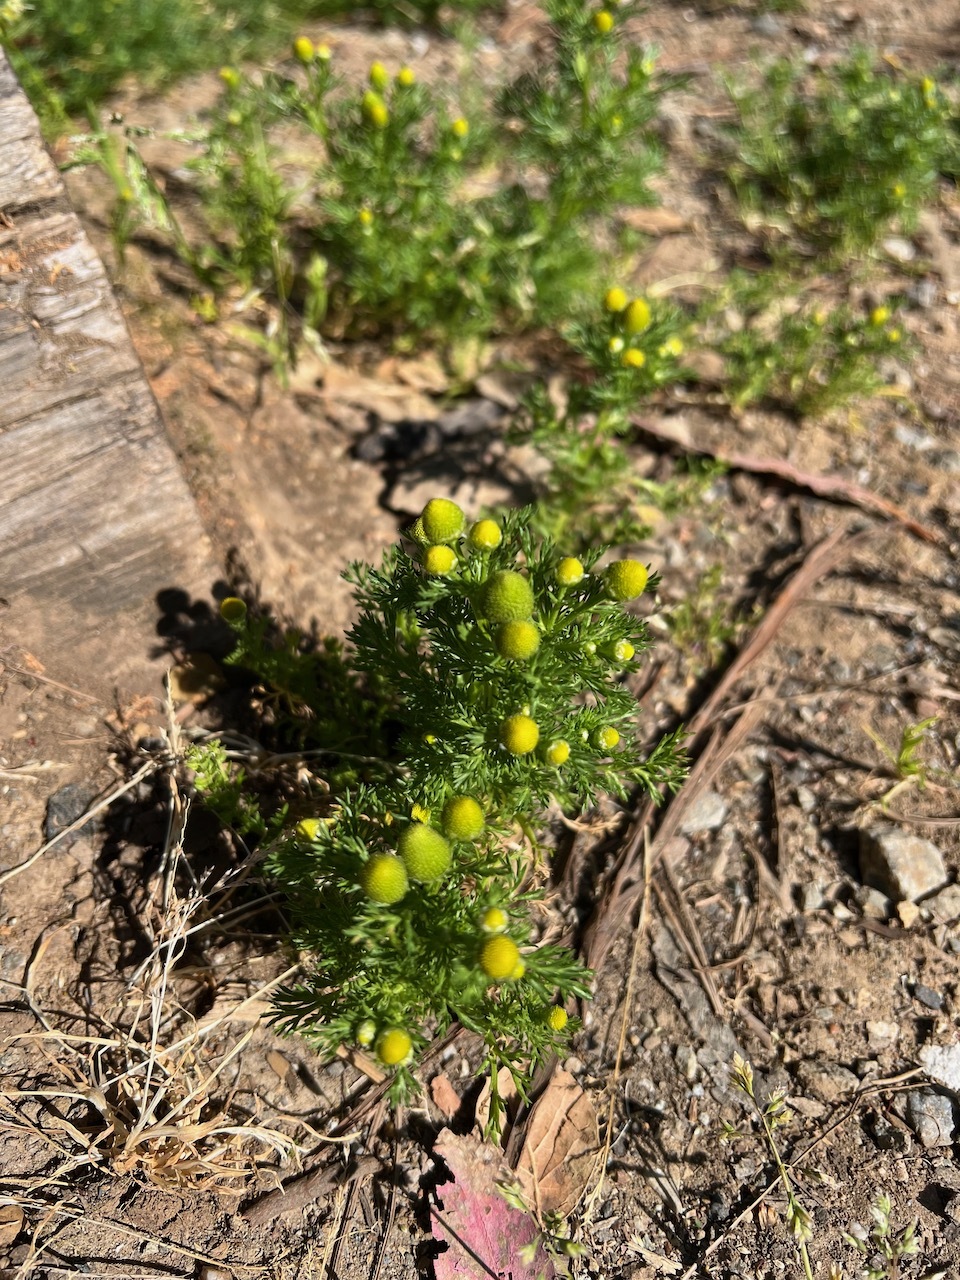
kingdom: Plantae
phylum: Tracheophyta
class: Magnoliopsida
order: Asterales
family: Asteraceae
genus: Matricaria
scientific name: Matricaria discoidea
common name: Disc mayweed
